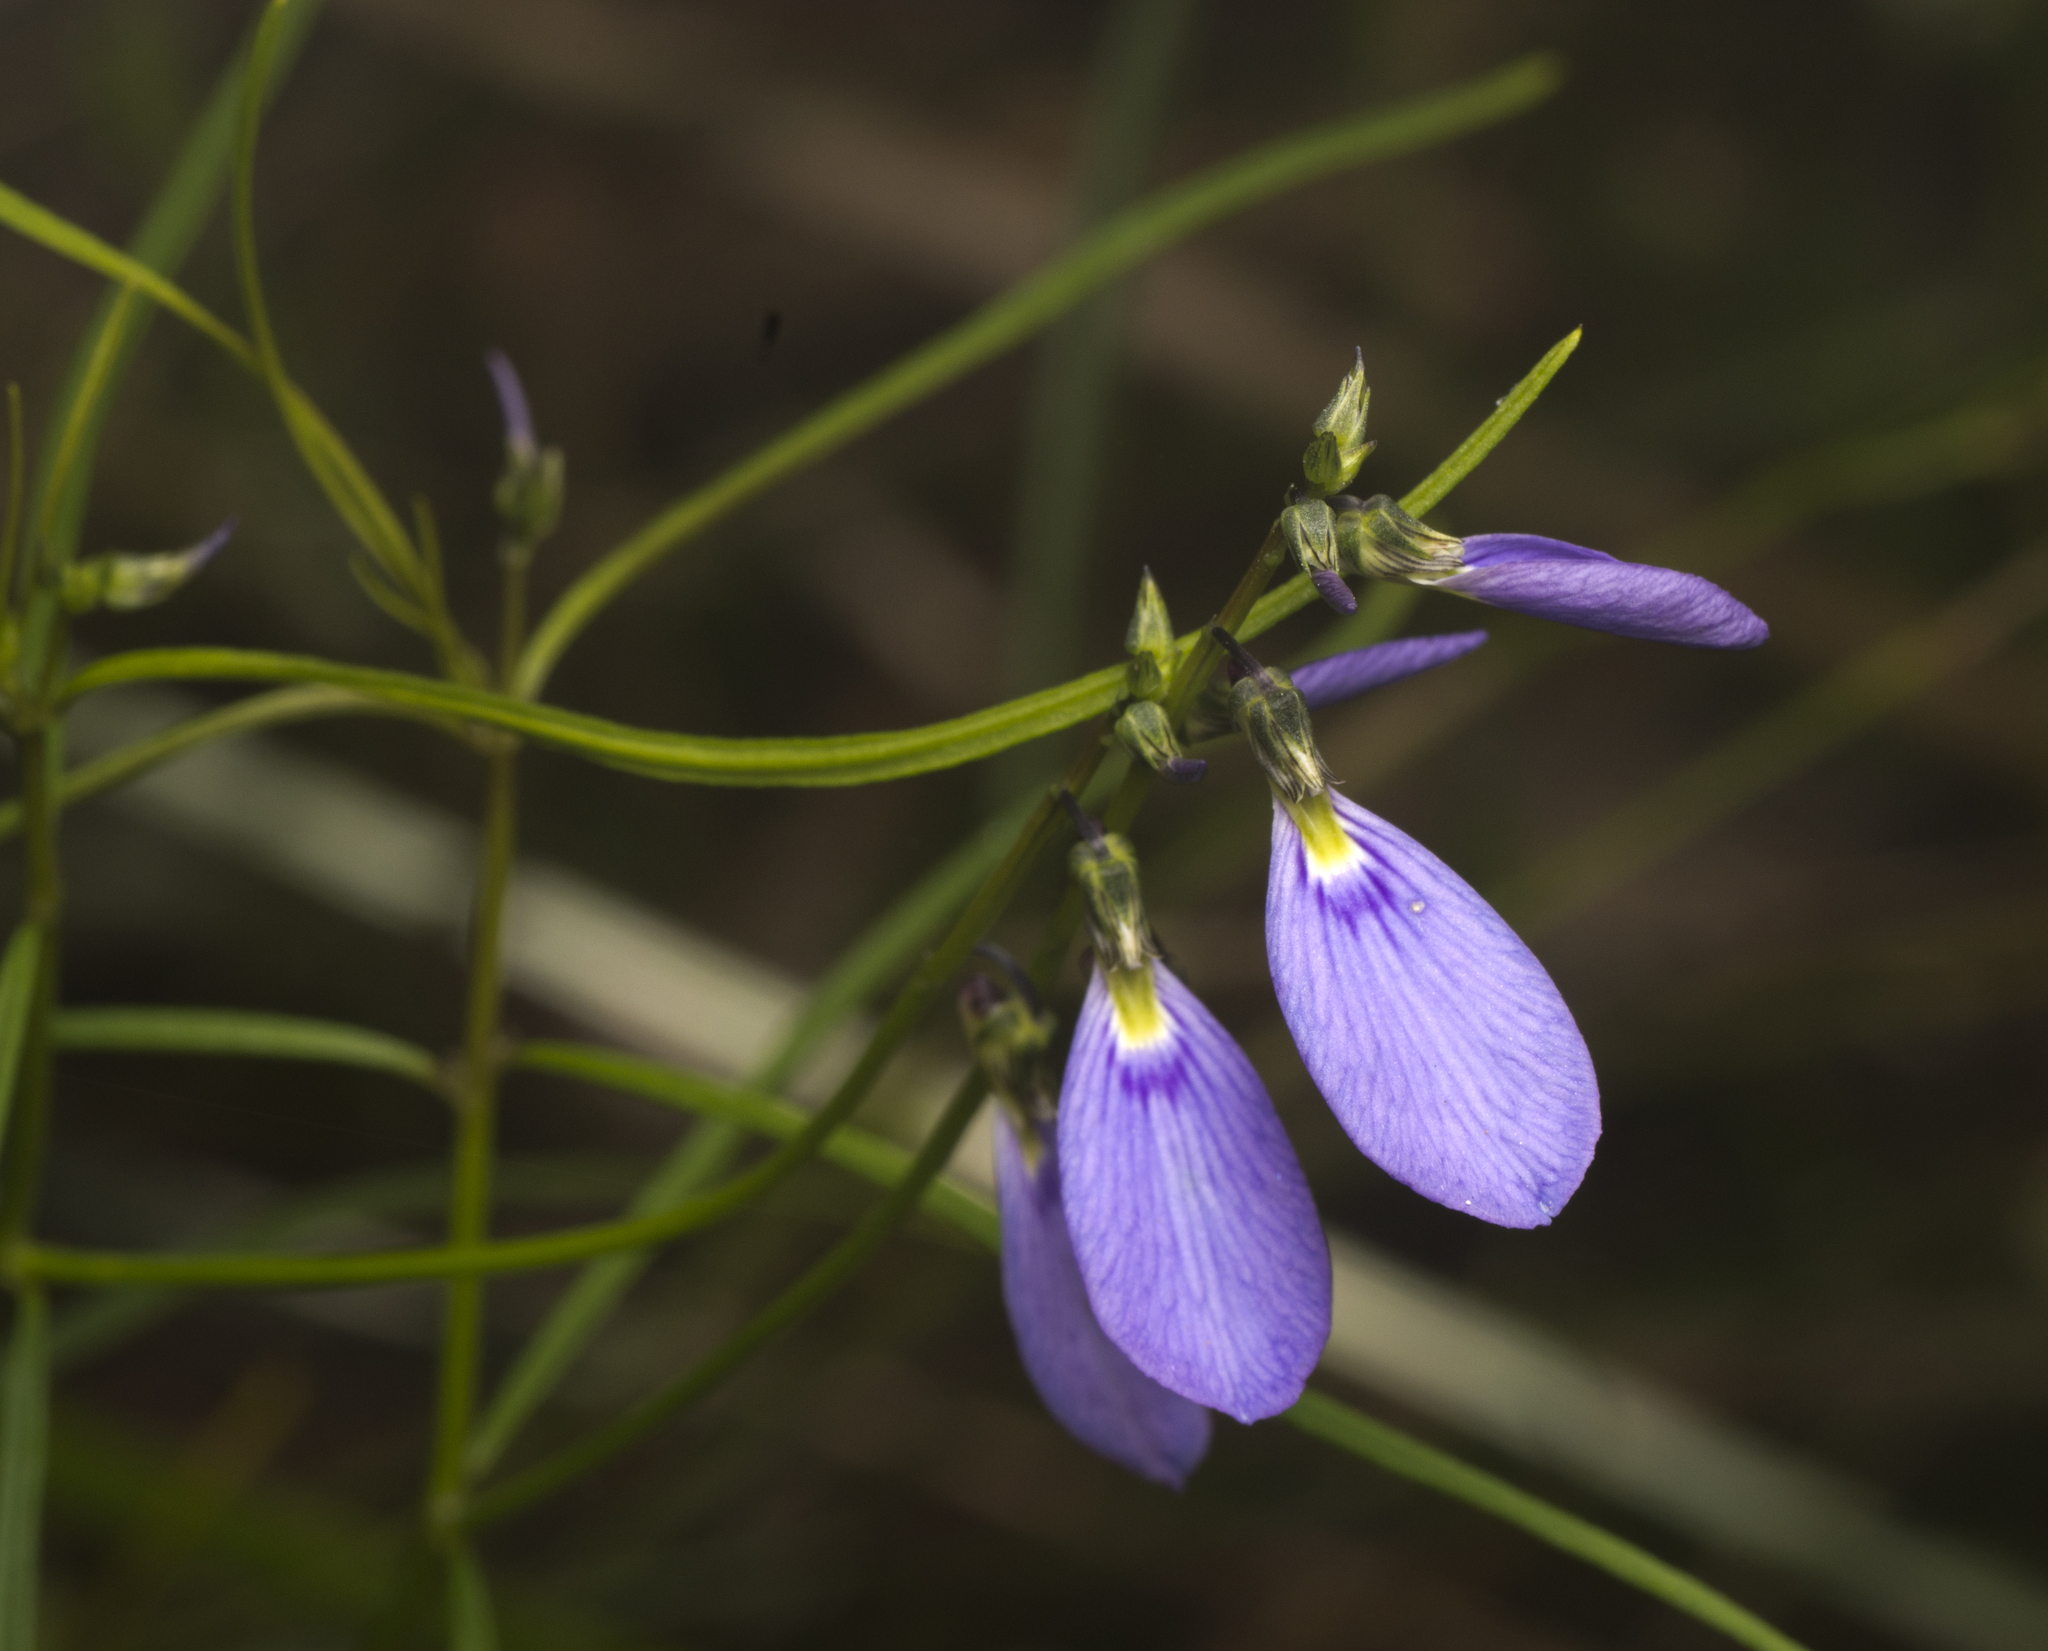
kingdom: Plantae
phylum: Tracheophyta
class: Magnoliopsida
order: Malpighiales
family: Violaceae
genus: Pigea
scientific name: Pigea monopetala
